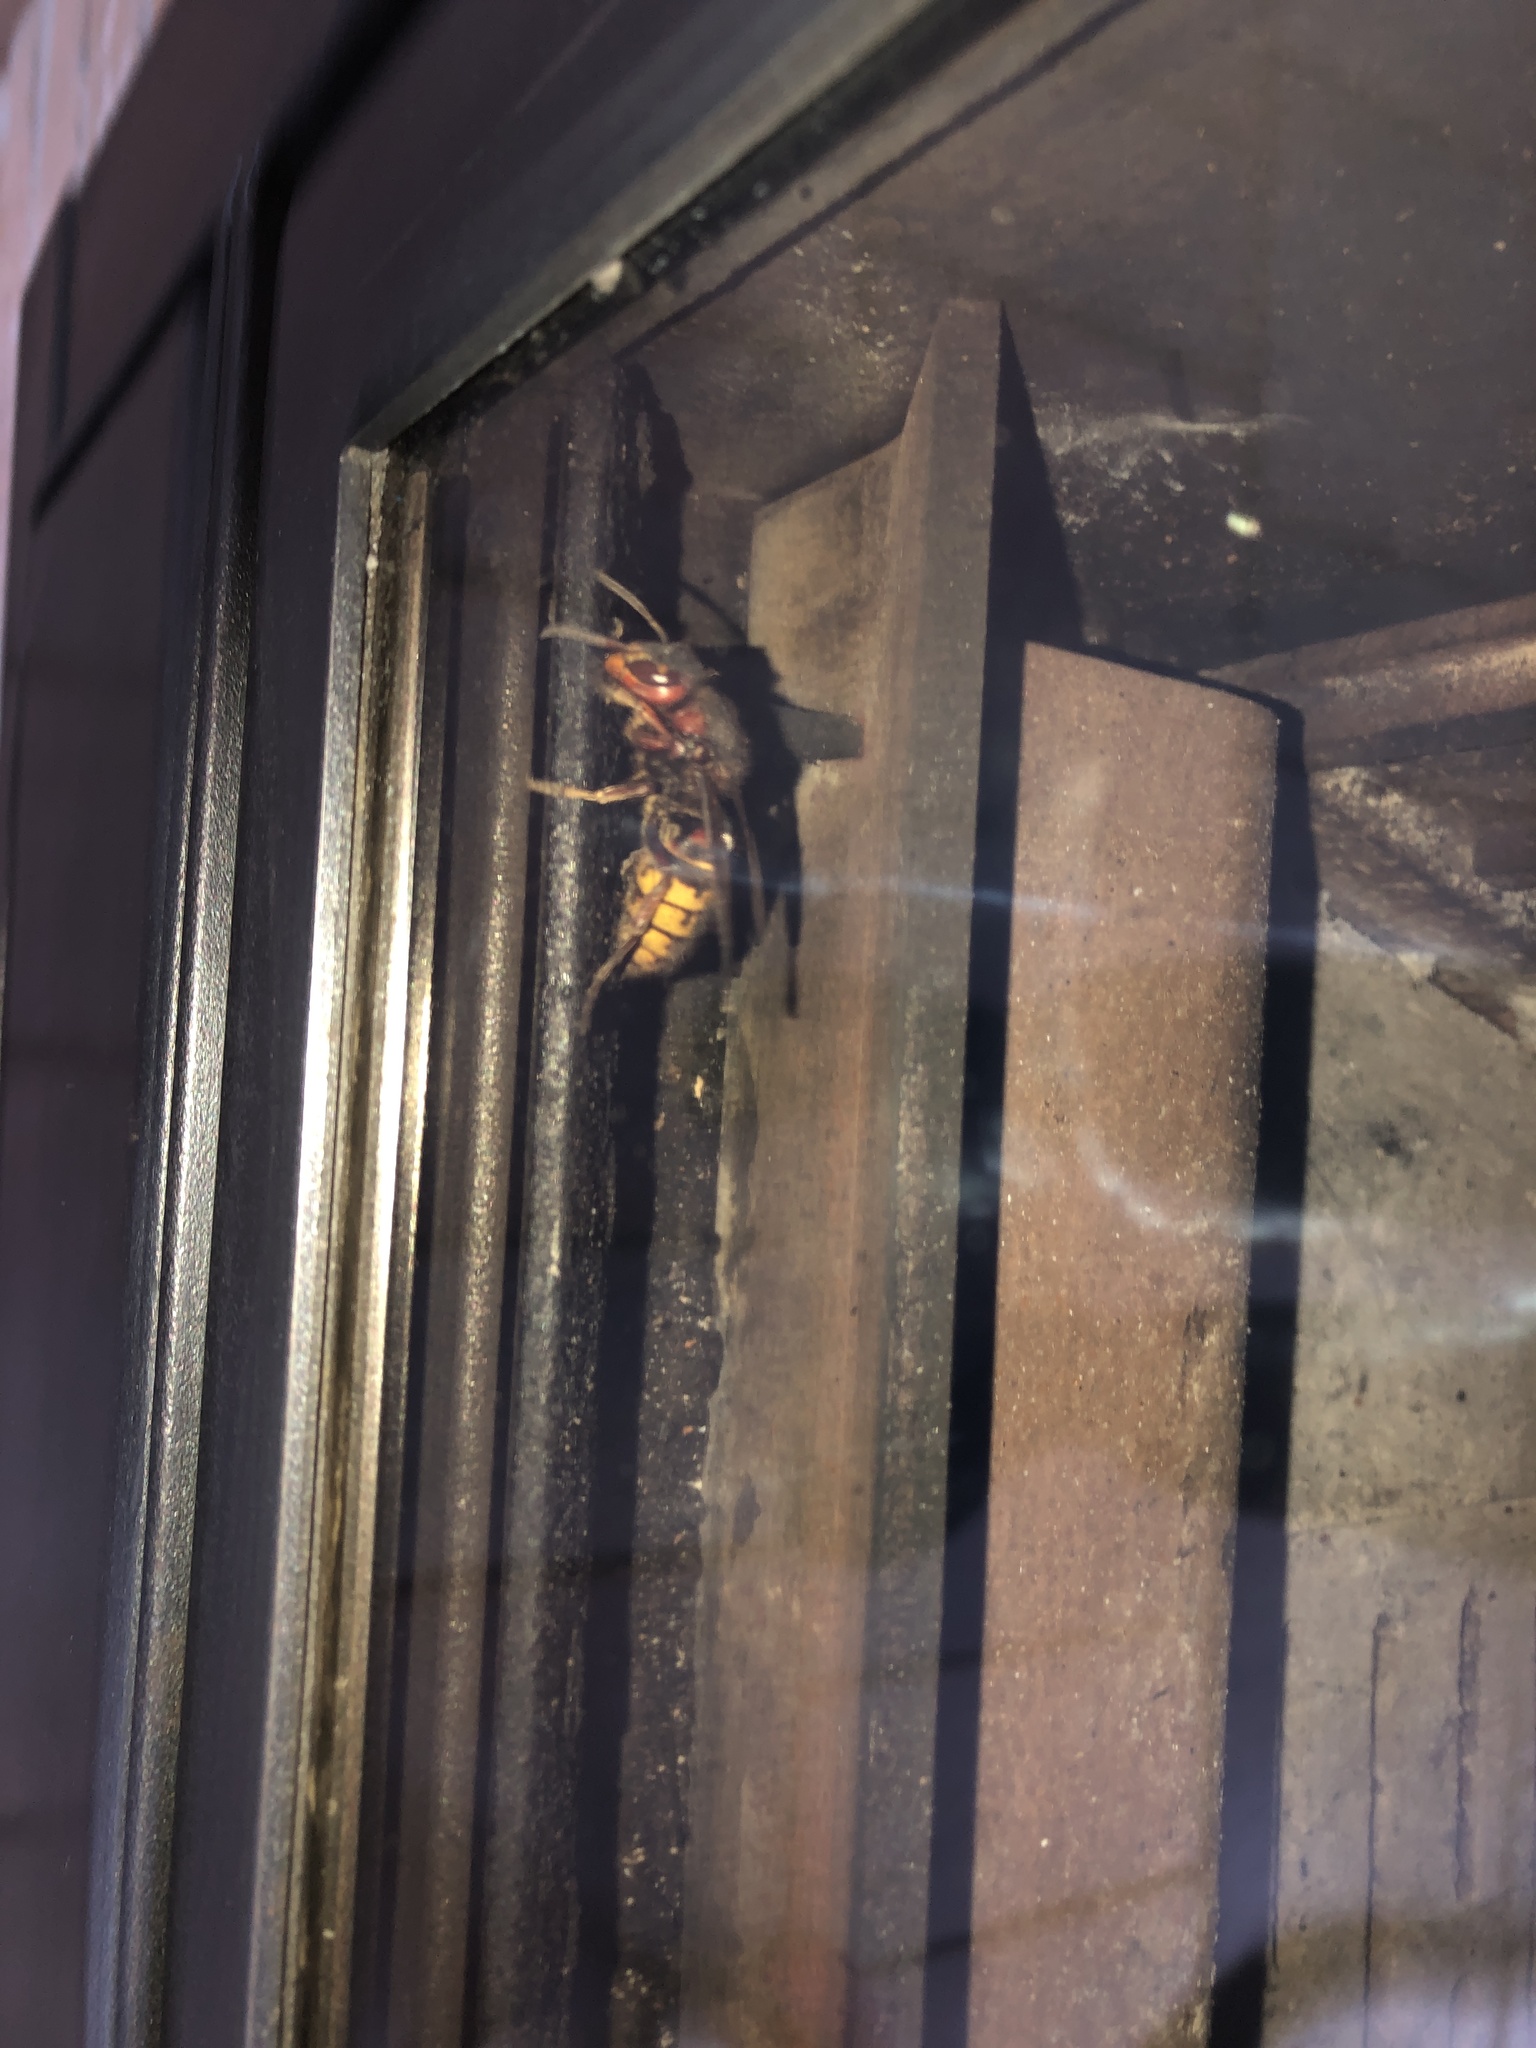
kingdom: Animalia
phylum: Arthropoda
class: Insecta
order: Hymenoptera
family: Vespidae
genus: Vespa
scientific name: Vespa crabro
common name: Hornet
